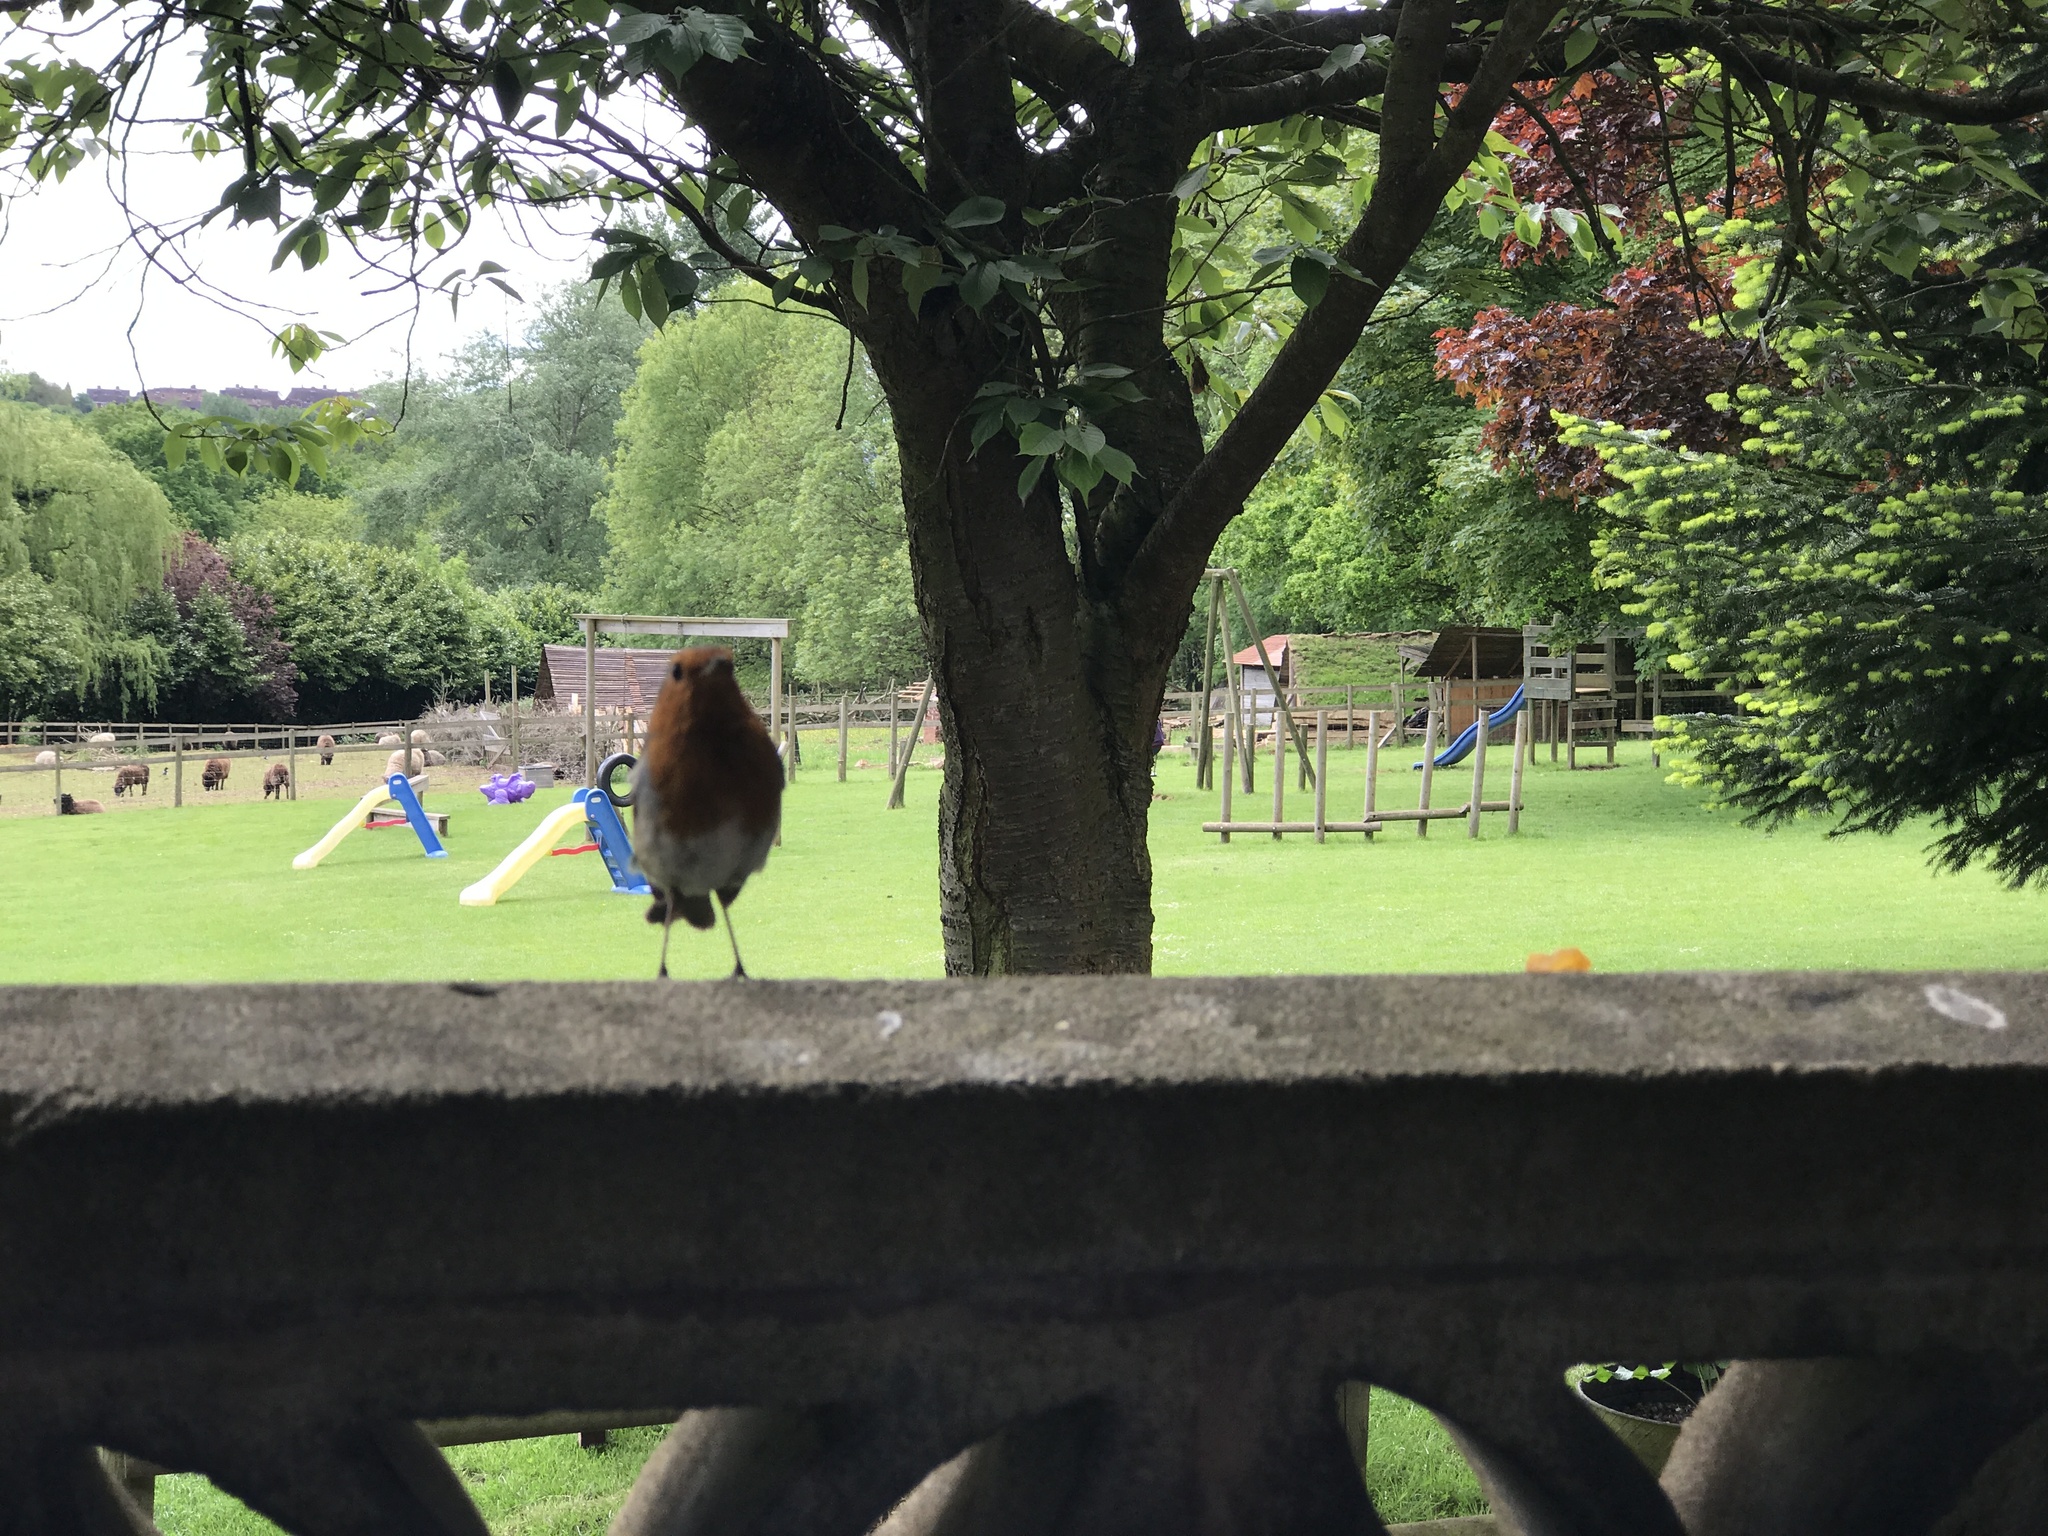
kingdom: Animalia
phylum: Chordata
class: Aves
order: Passeriformes
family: Muscicapidae
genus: Erithacus
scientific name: Erithacus rubecula
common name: European robin
